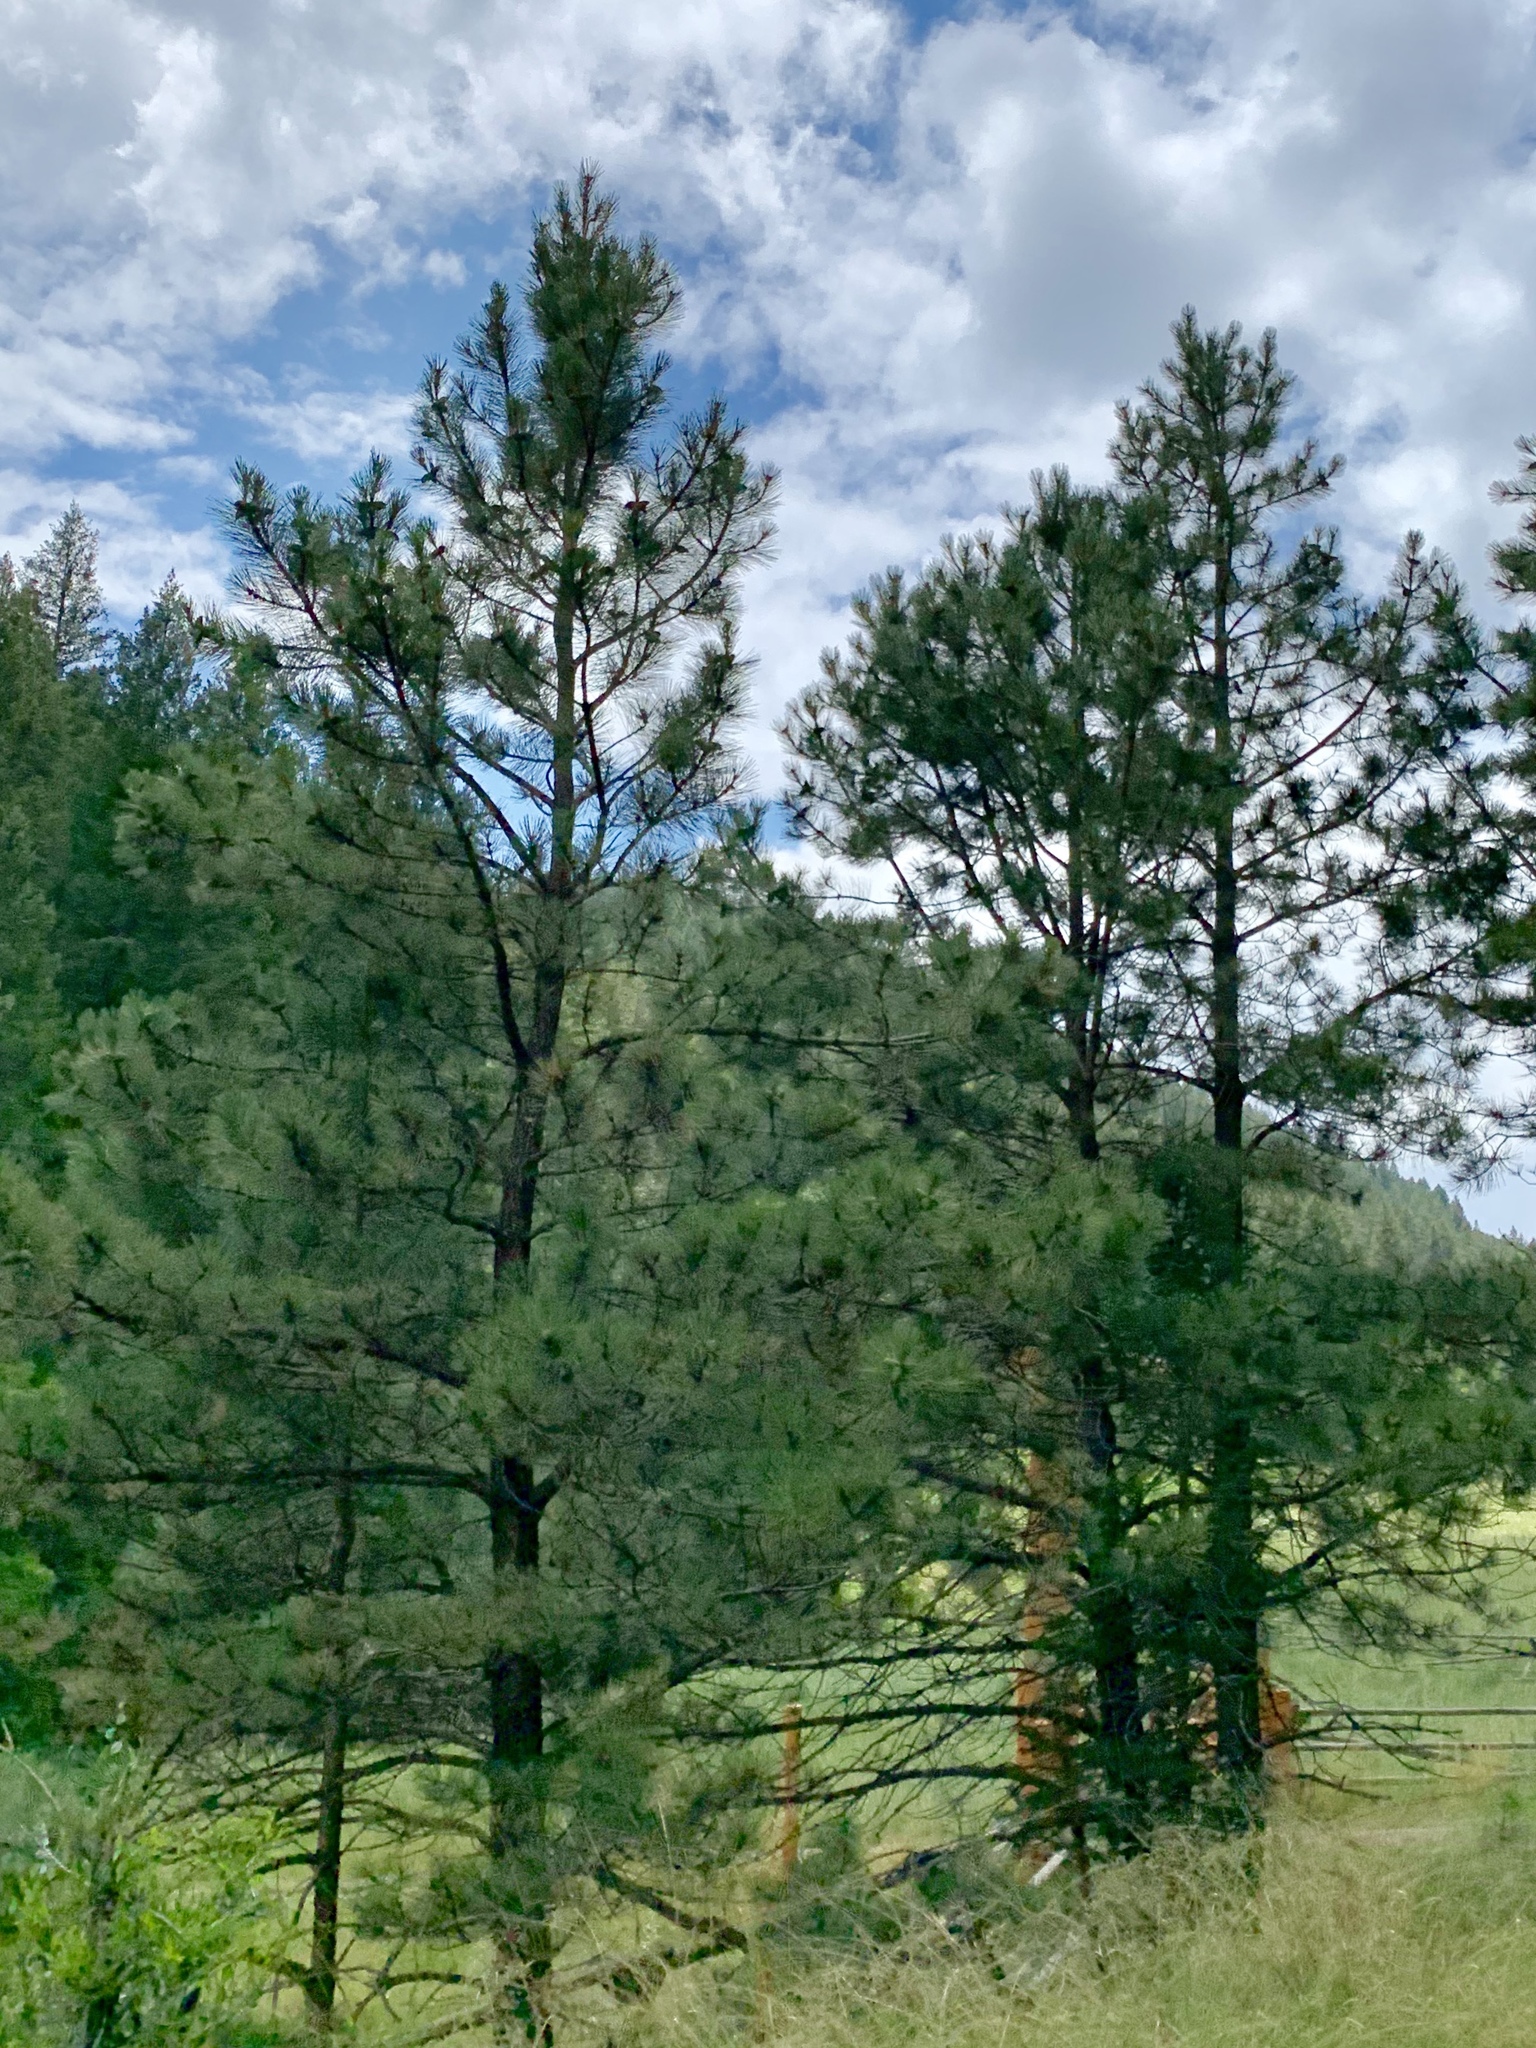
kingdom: Plantae
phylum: Tracheophyta
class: Pinopsida
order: Pinales
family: Pinaceae
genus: Pinus
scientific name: Pinus ponderosa
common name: Western yellow-pine
